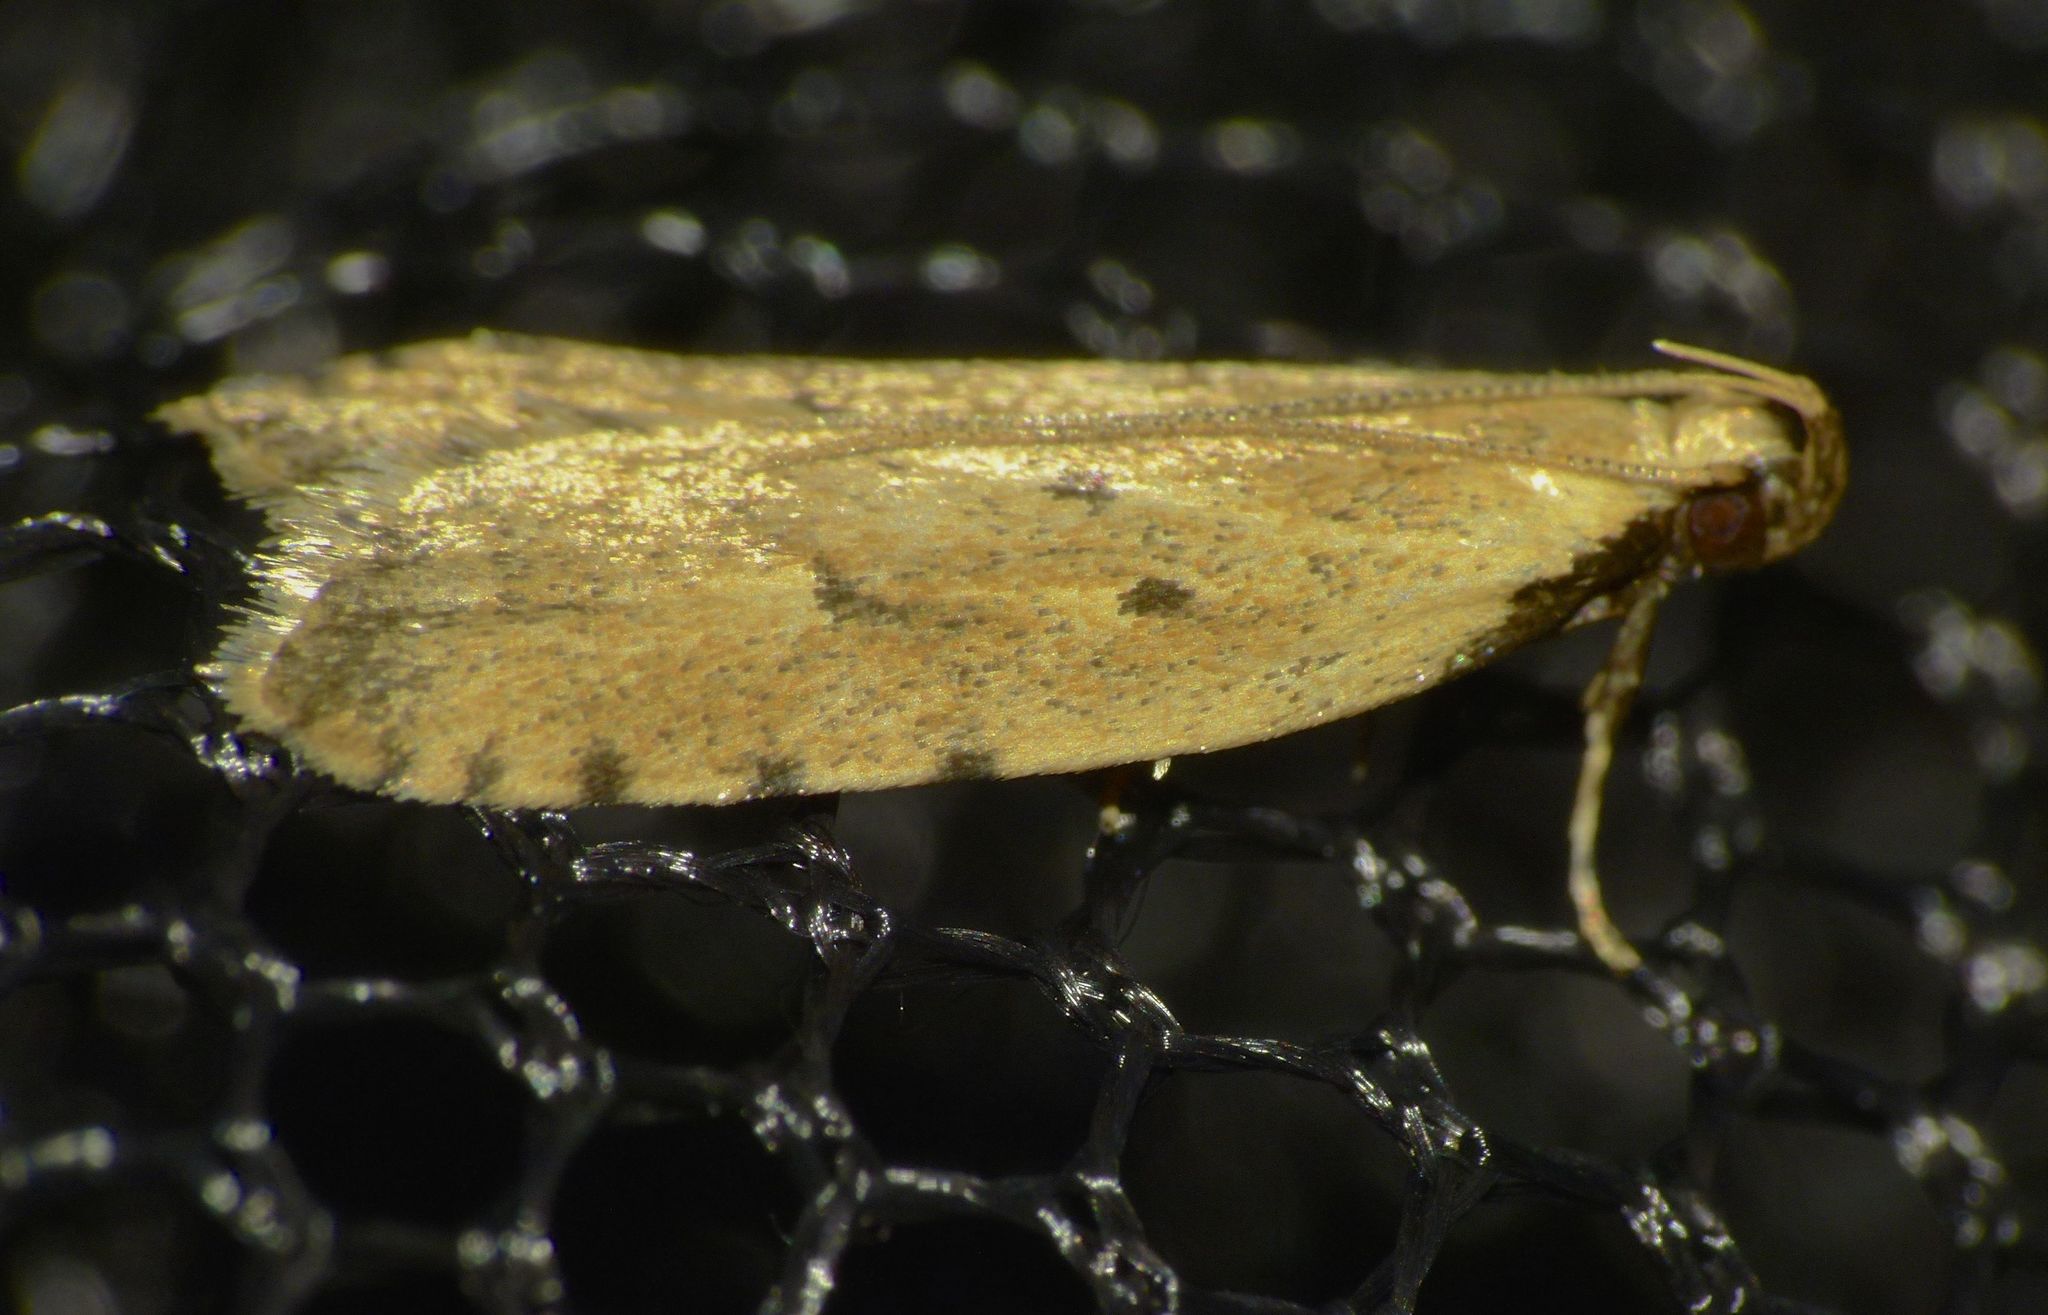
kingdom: Animalia
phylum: Arthropoda
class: Insecta
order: Lepidoptera
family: Oecophoridae
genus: Gymnobathra
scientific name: Gymnobathra calliploca
